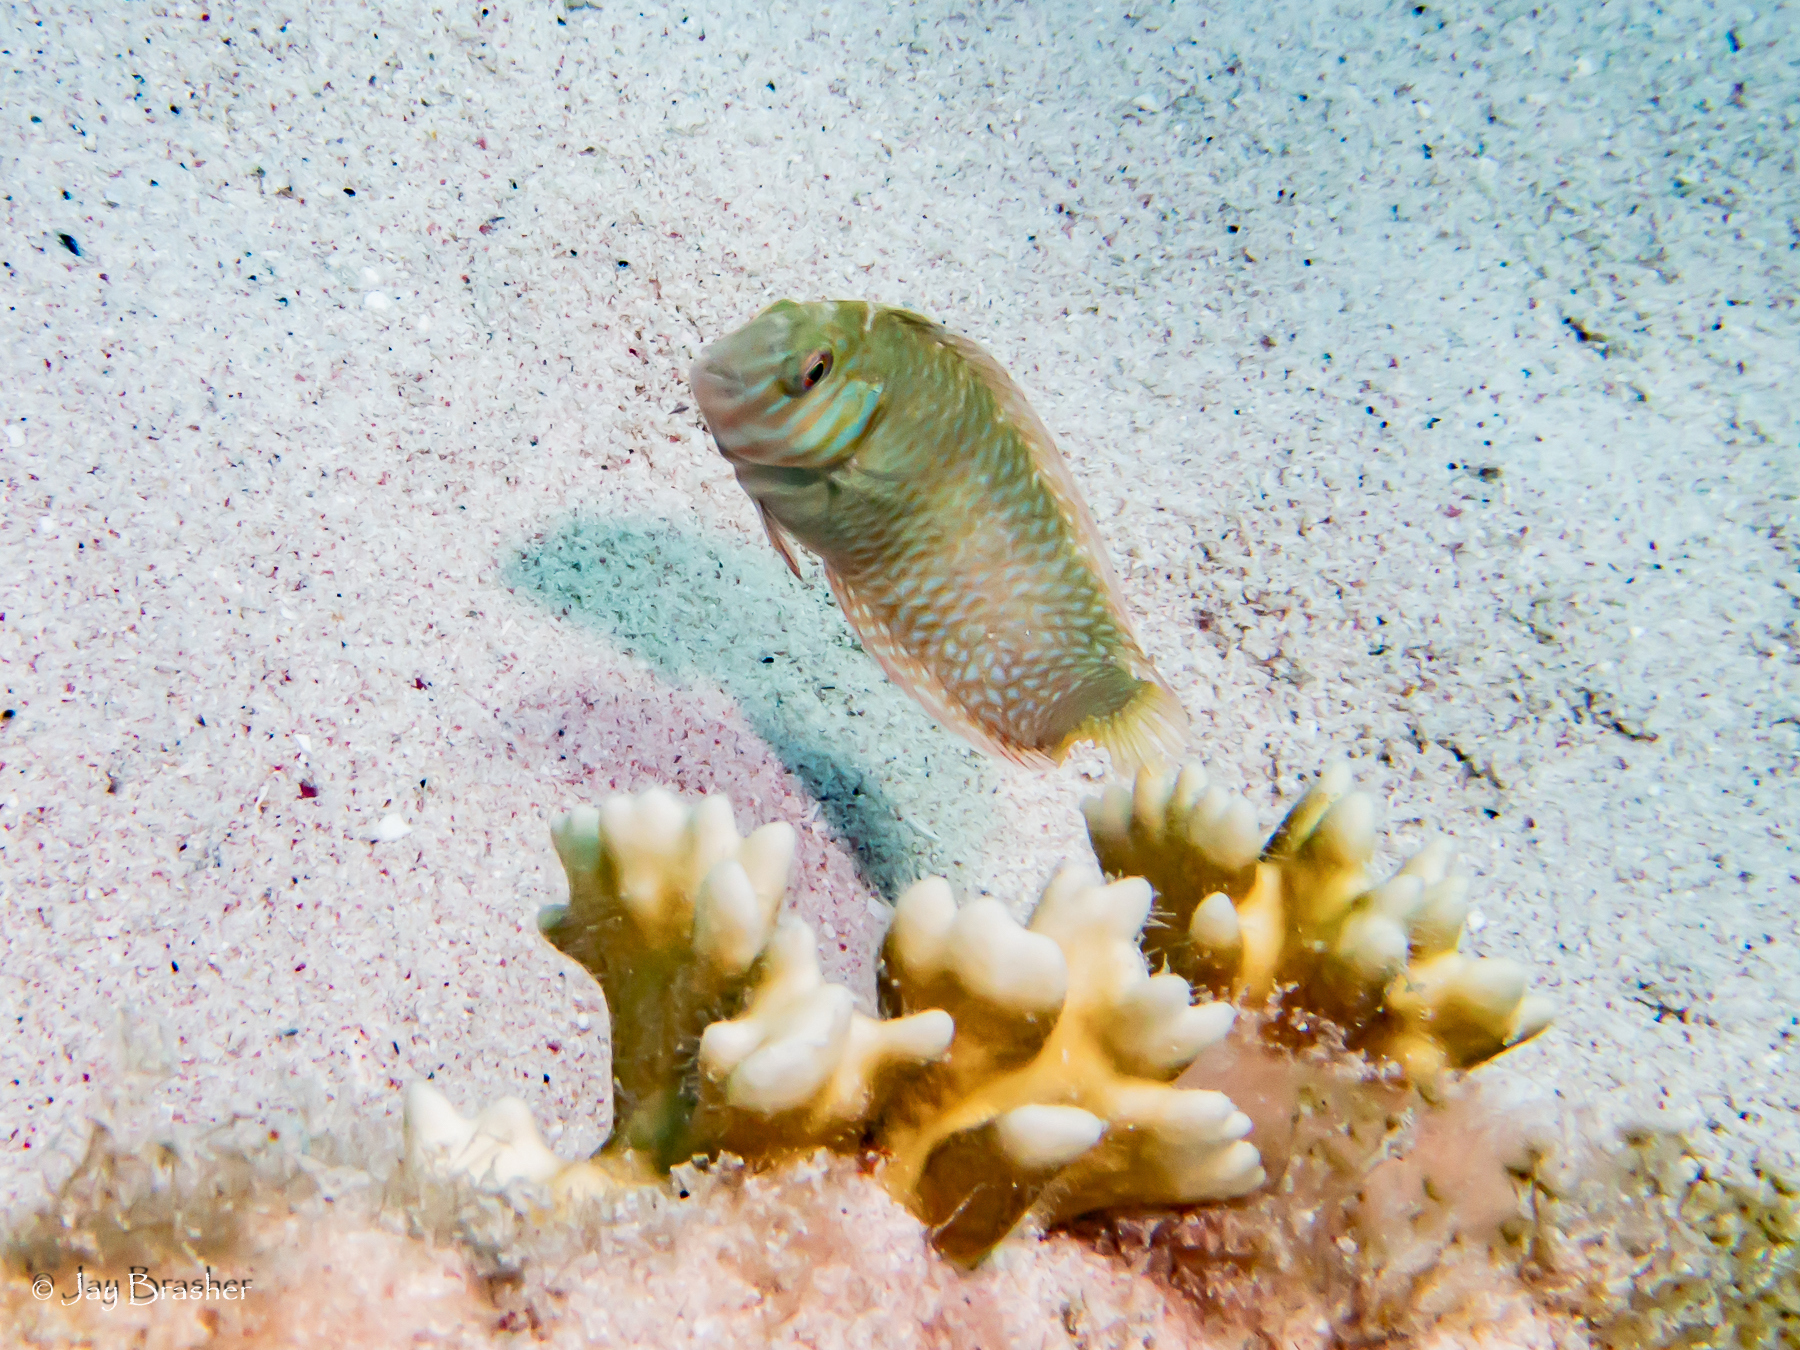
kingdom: Animalia
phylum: Chordata
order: Perciformes
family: Labridae
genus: Xyrichtys
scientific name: Xyrichtys splendens
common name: Green razorfish
